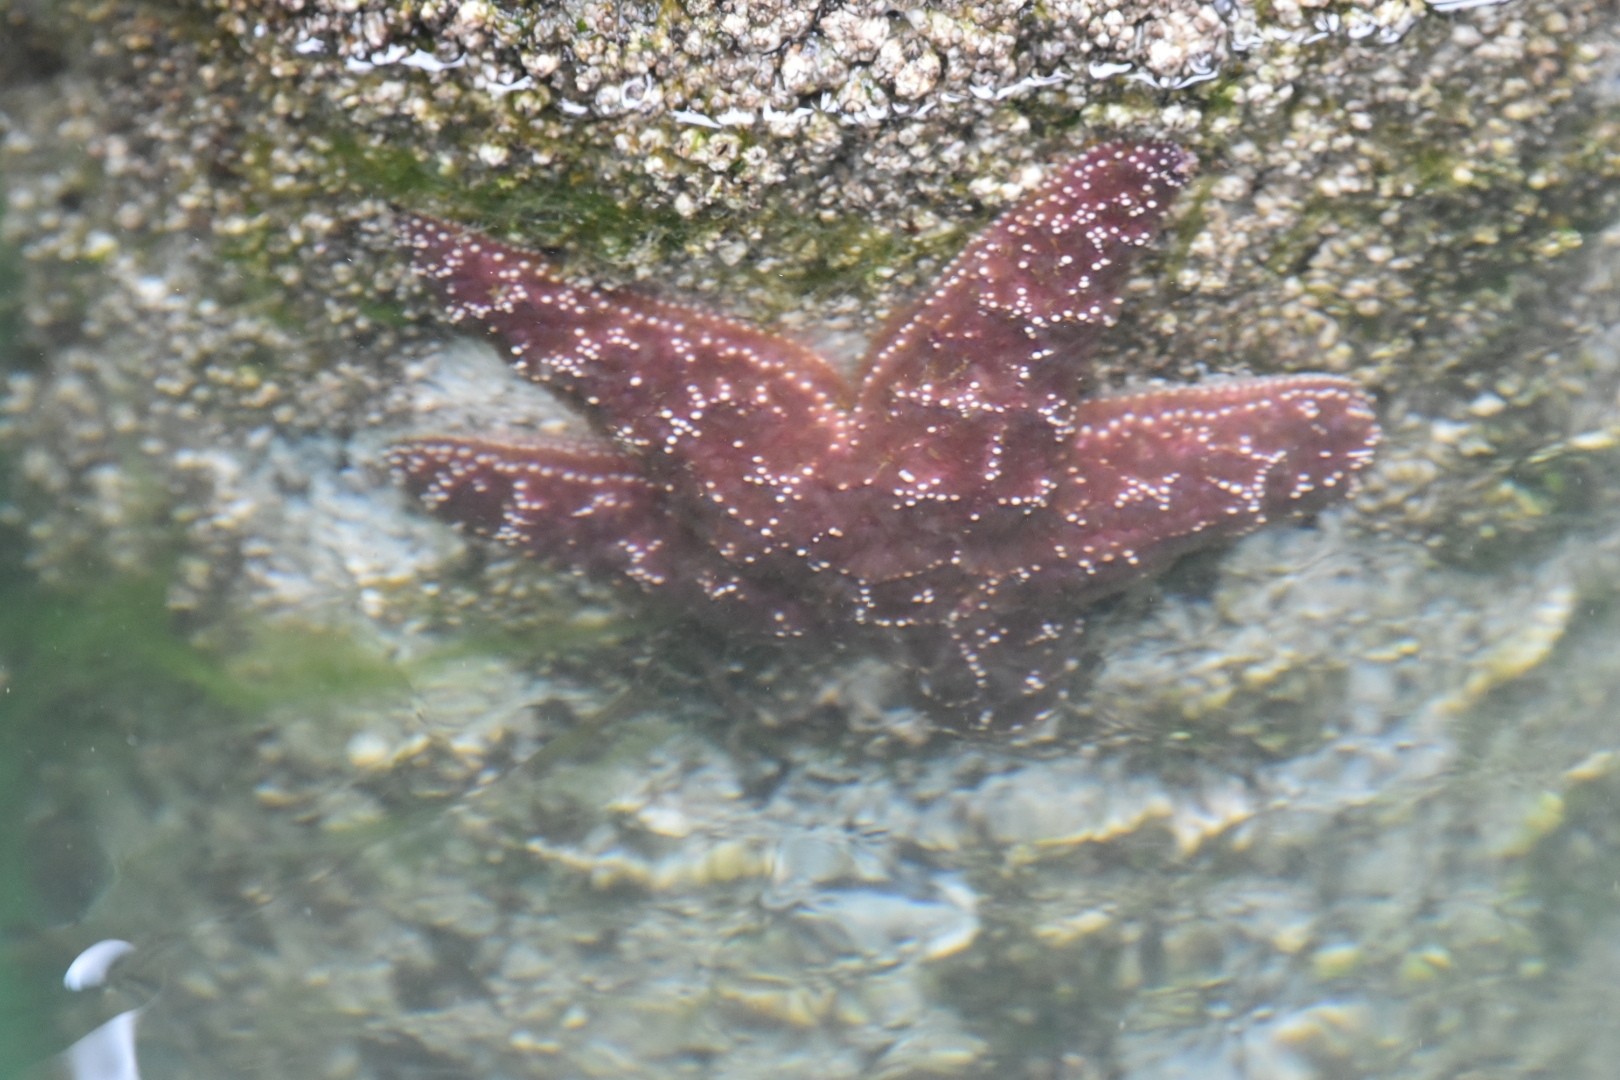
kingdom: Animalia
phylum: Echinodermata
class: Asteroidea
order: Forcipulatida
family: Asteriidae
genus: Pisaster
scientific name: Pisaster ochraceus
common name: Ochre stars
